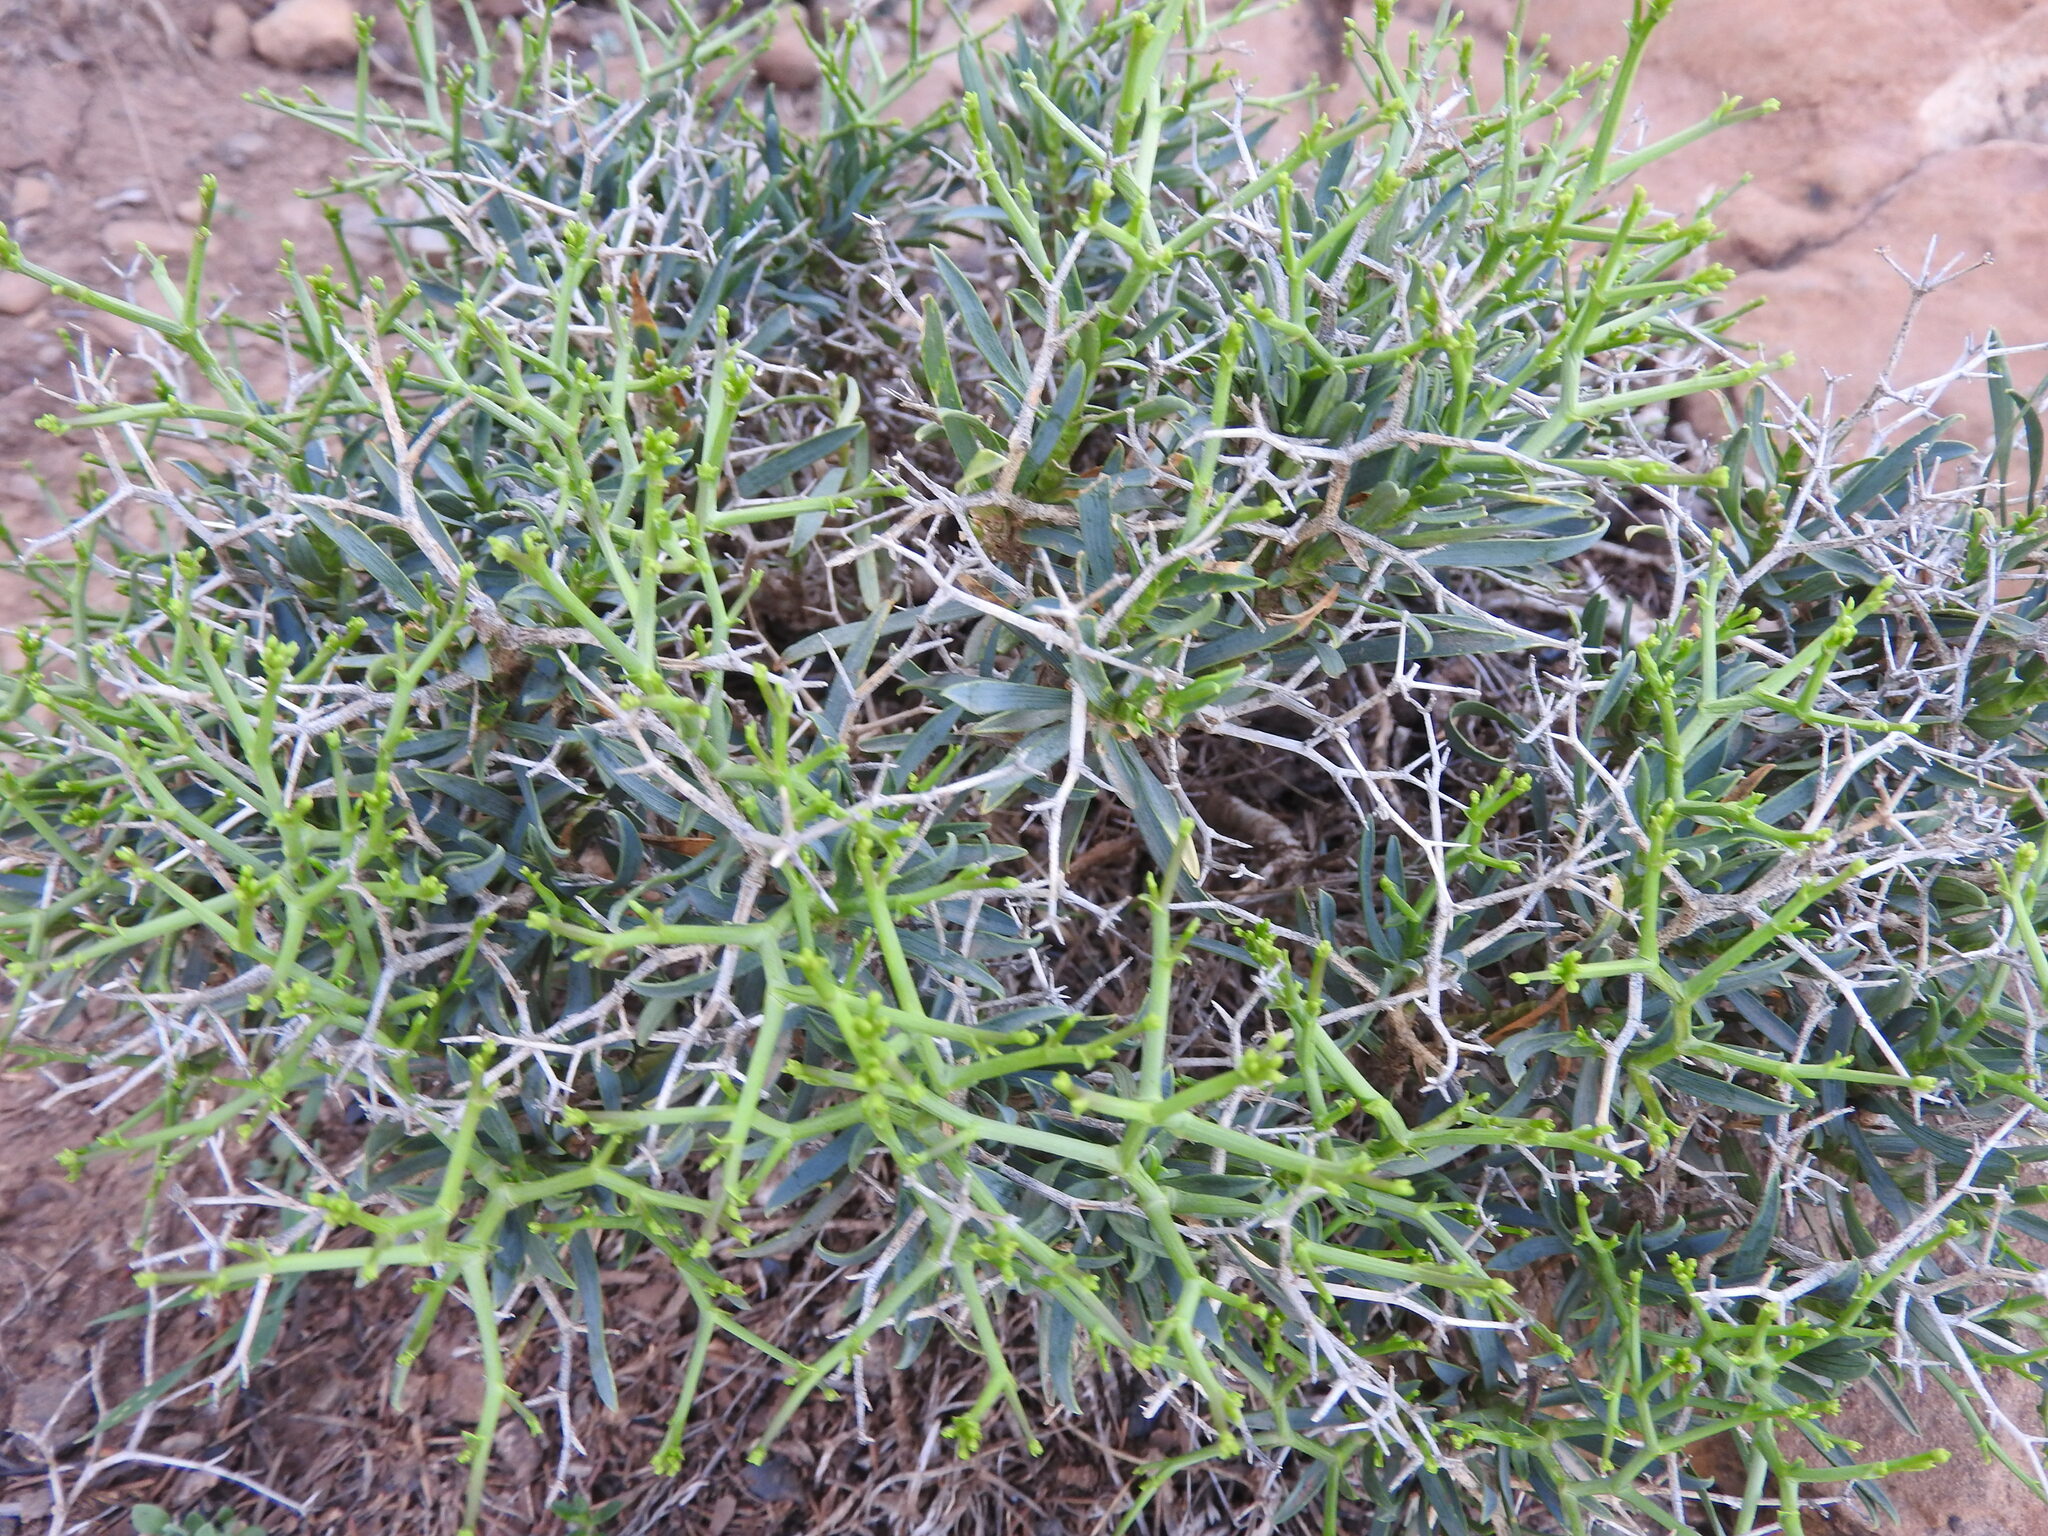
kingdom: Plantae
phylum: Tracheophyta
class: Magnoliopsida
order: Apiales
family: Apiaceae
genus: Bupleurum
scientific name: Bupleurum fruticescens
